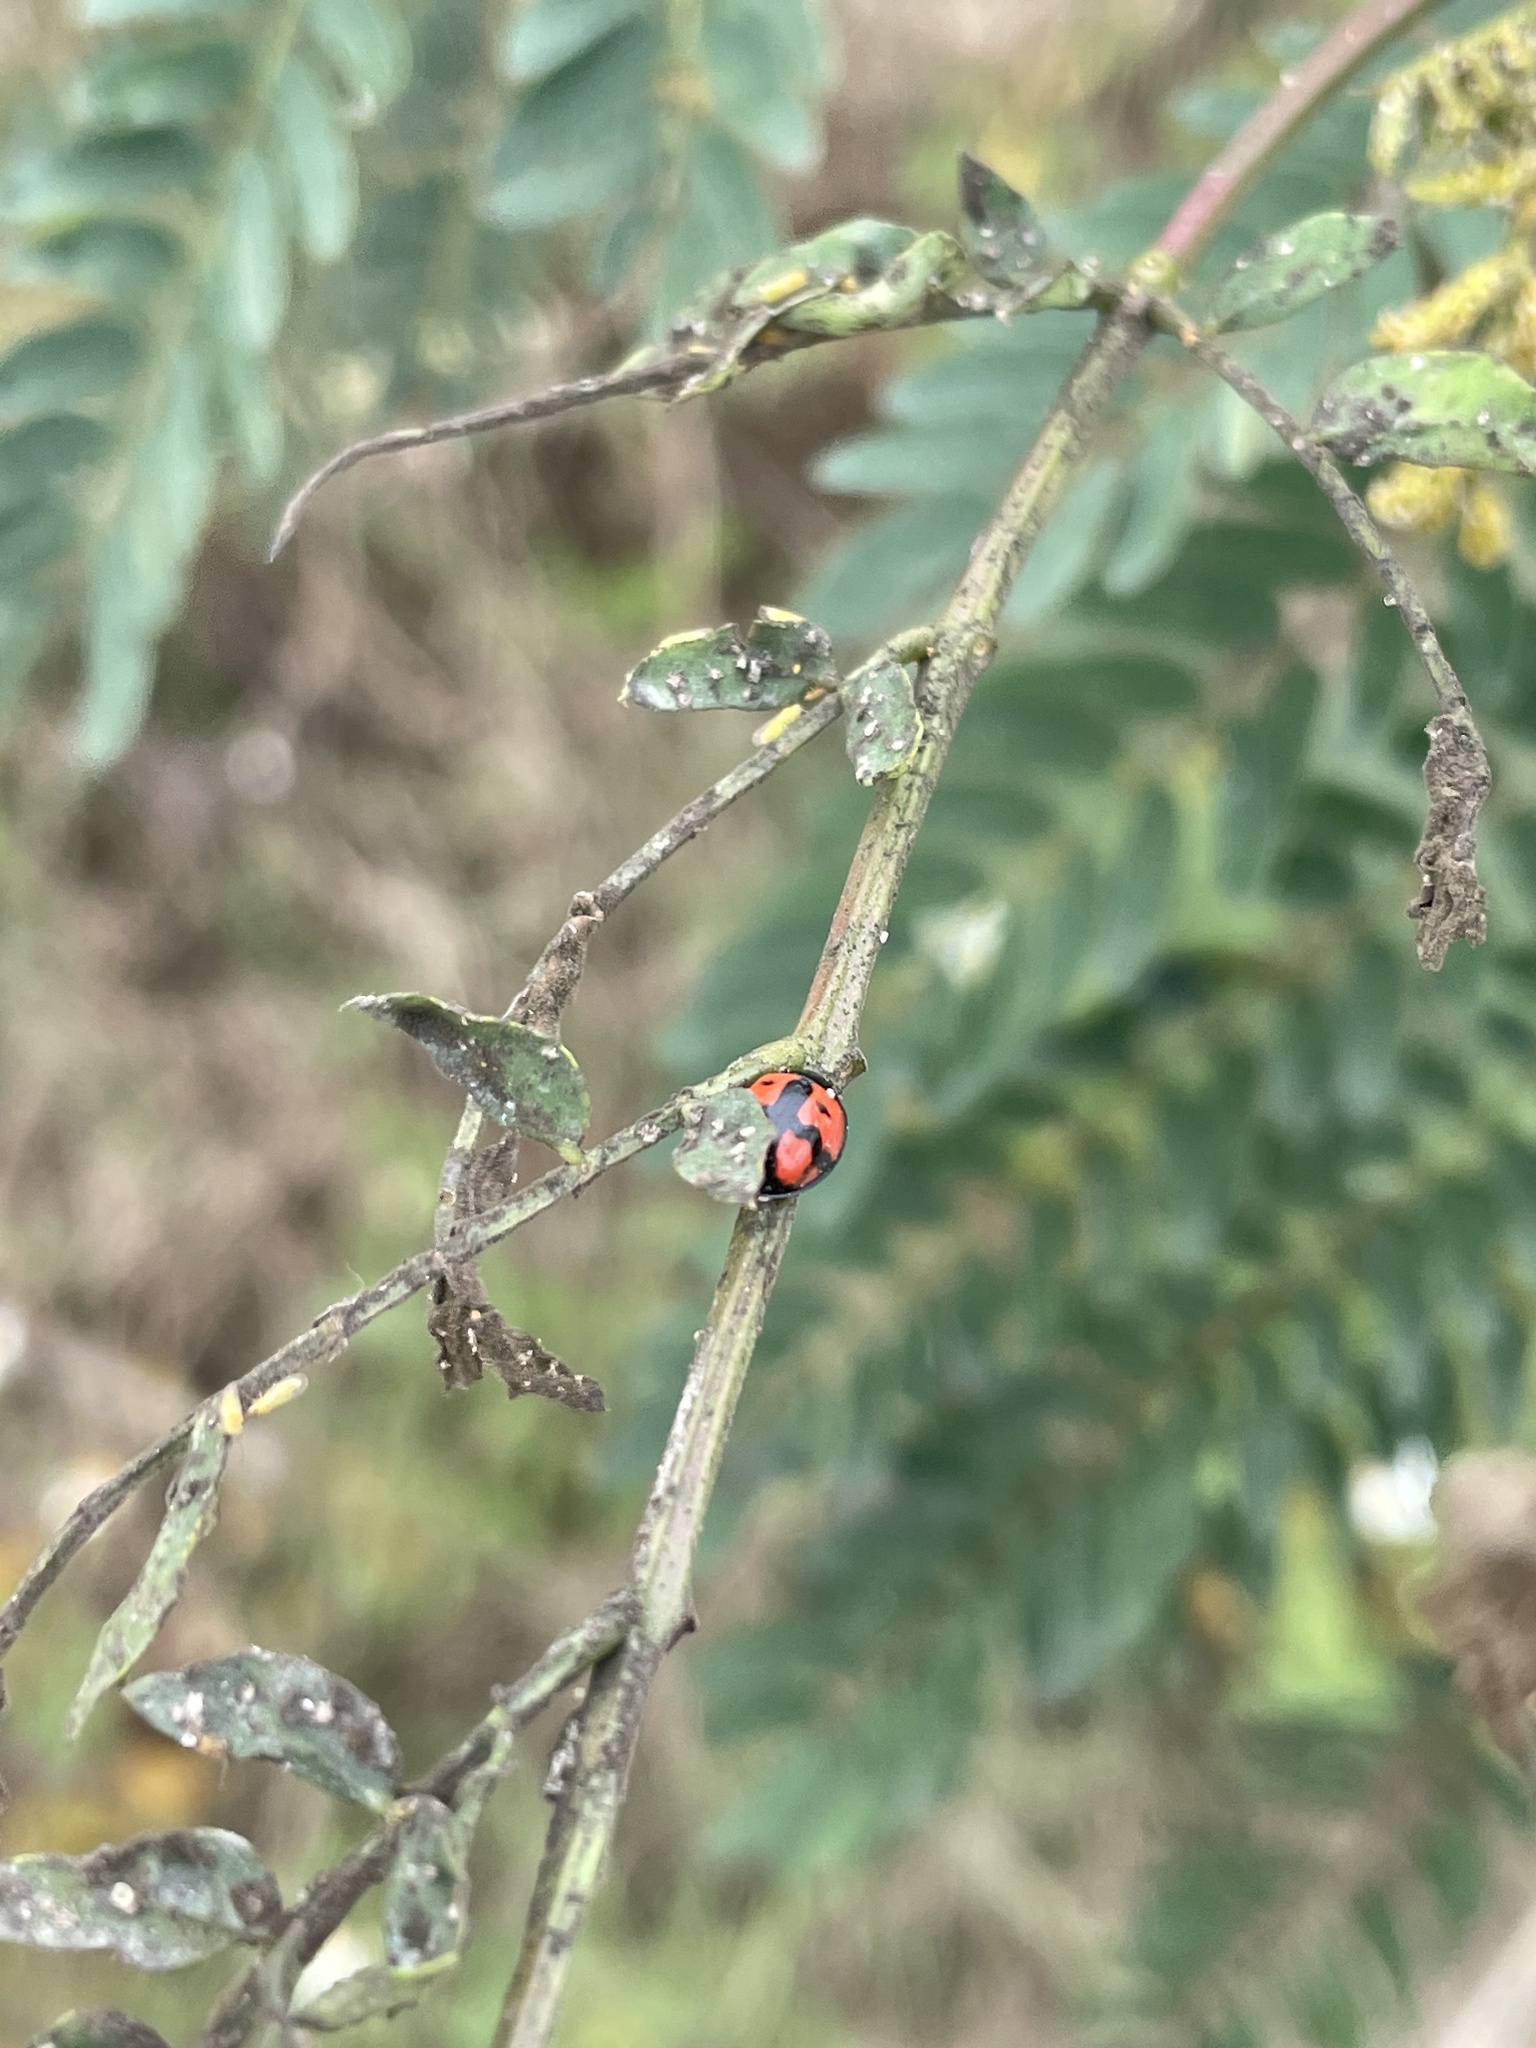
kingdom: Animalia
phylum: Arthropoda
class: Insecta
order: Coleoptera
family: Coccinellidae
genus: Cheilomenes
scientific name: Cheilomenes sexmaculata
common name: Ladybird beetle
